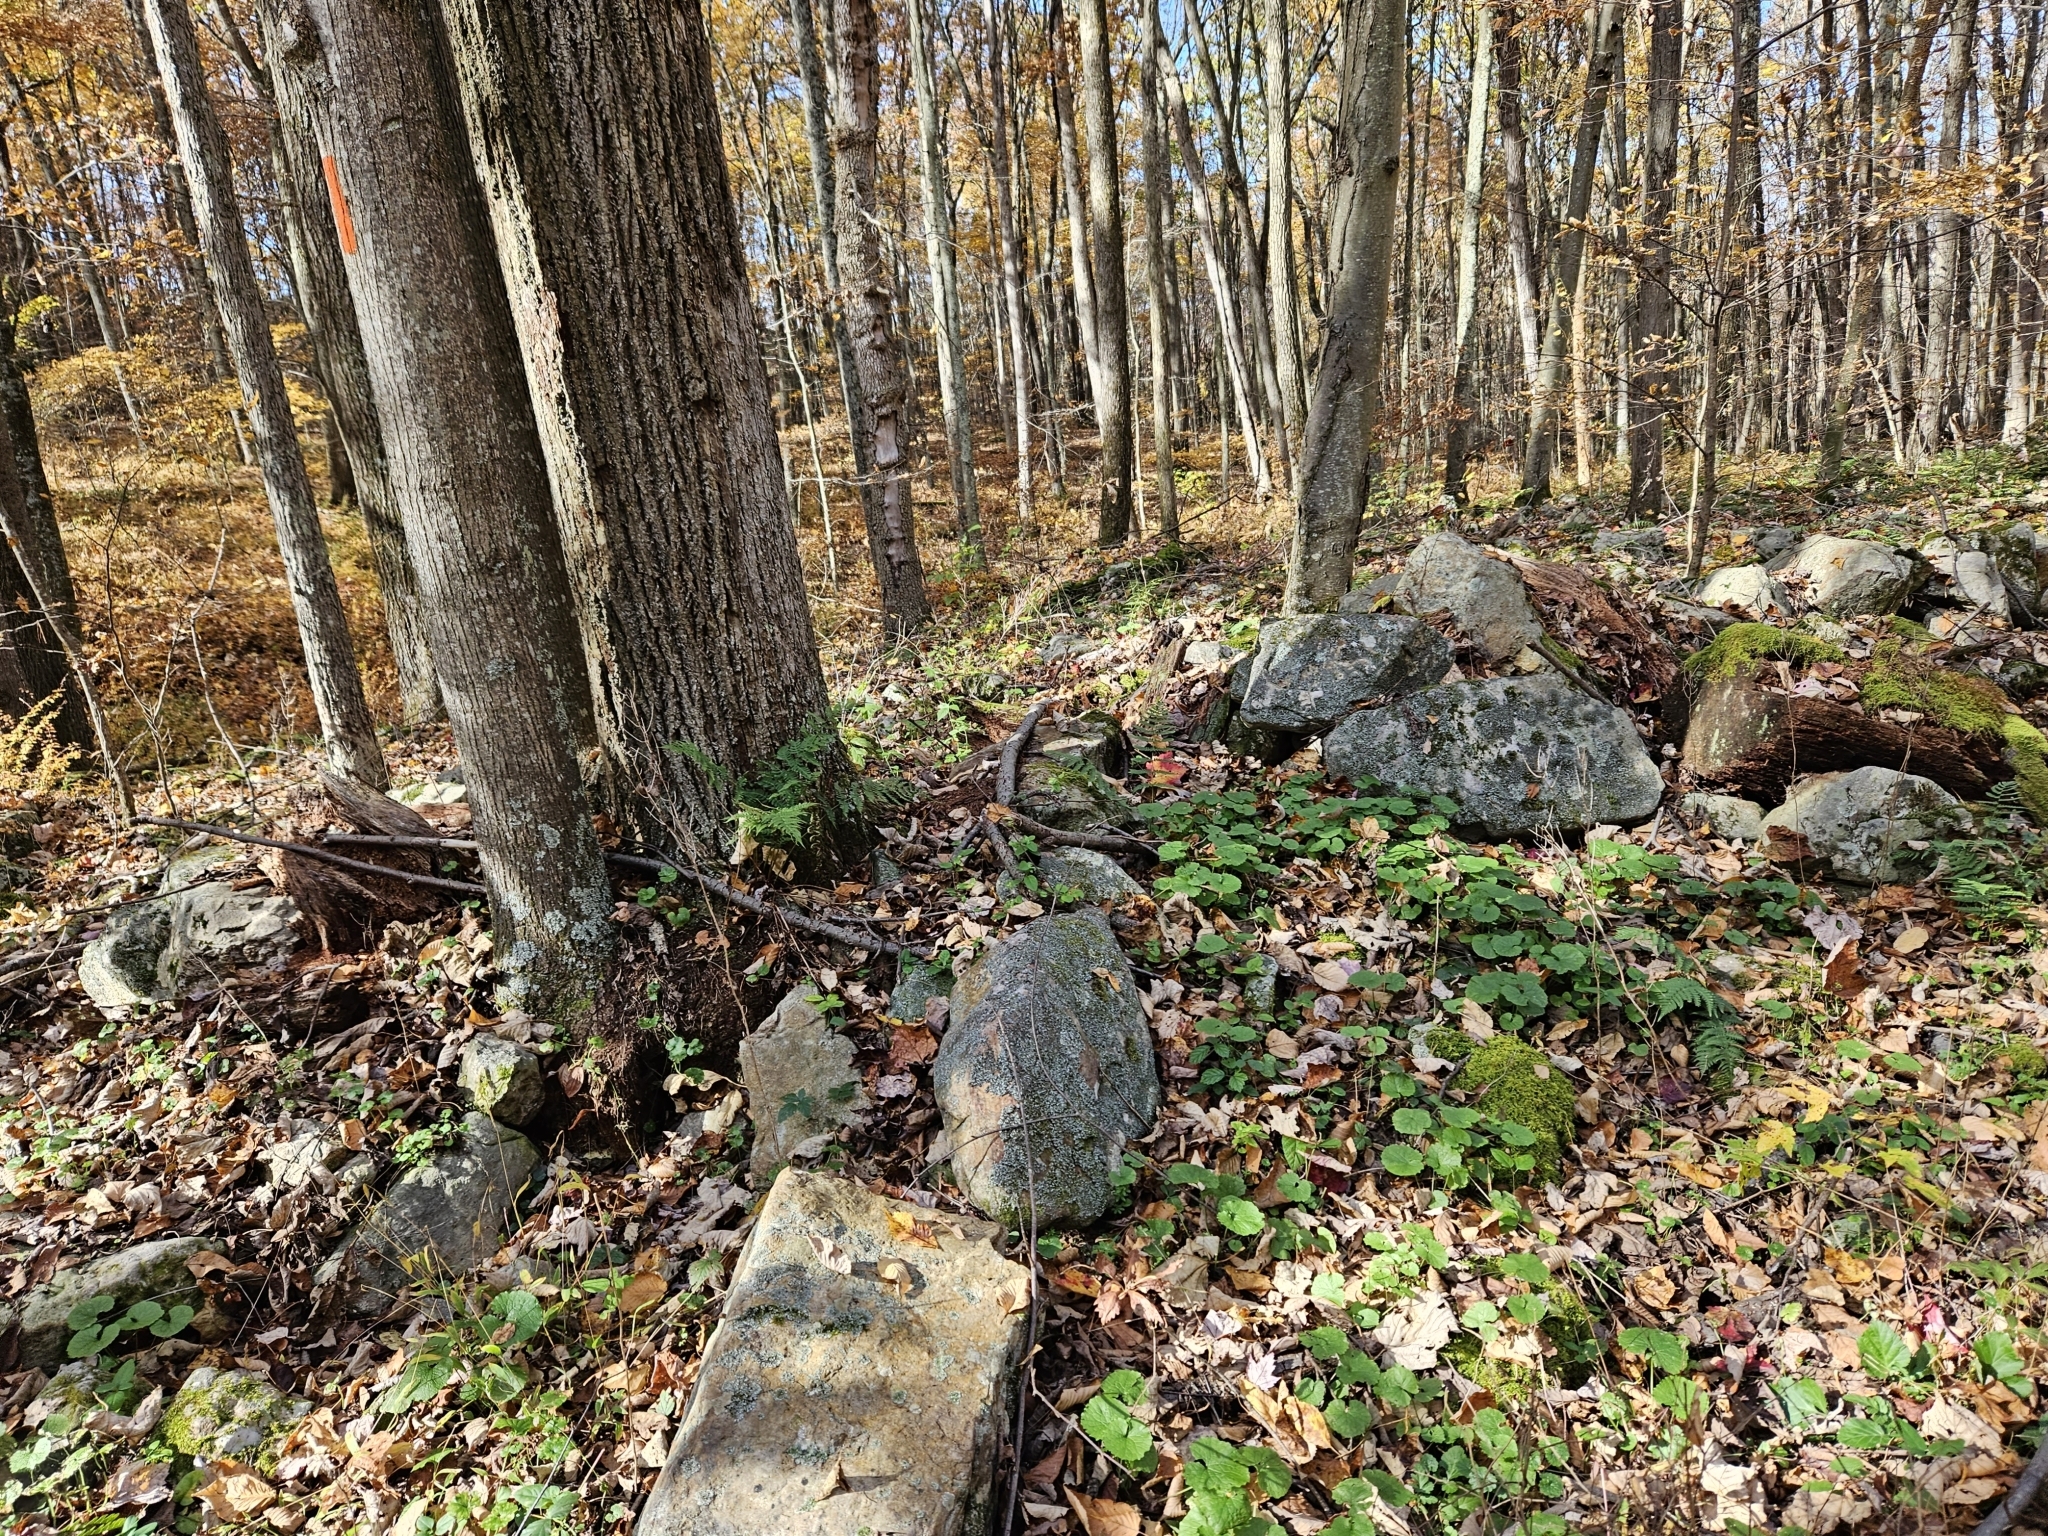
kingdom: Plantae
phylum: Tracheophyta
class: Magnoliopsida
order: Brassicales
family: Brassicaceae
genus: Alliaria
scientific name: Alliaria petiolata
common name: Garlic mustard
